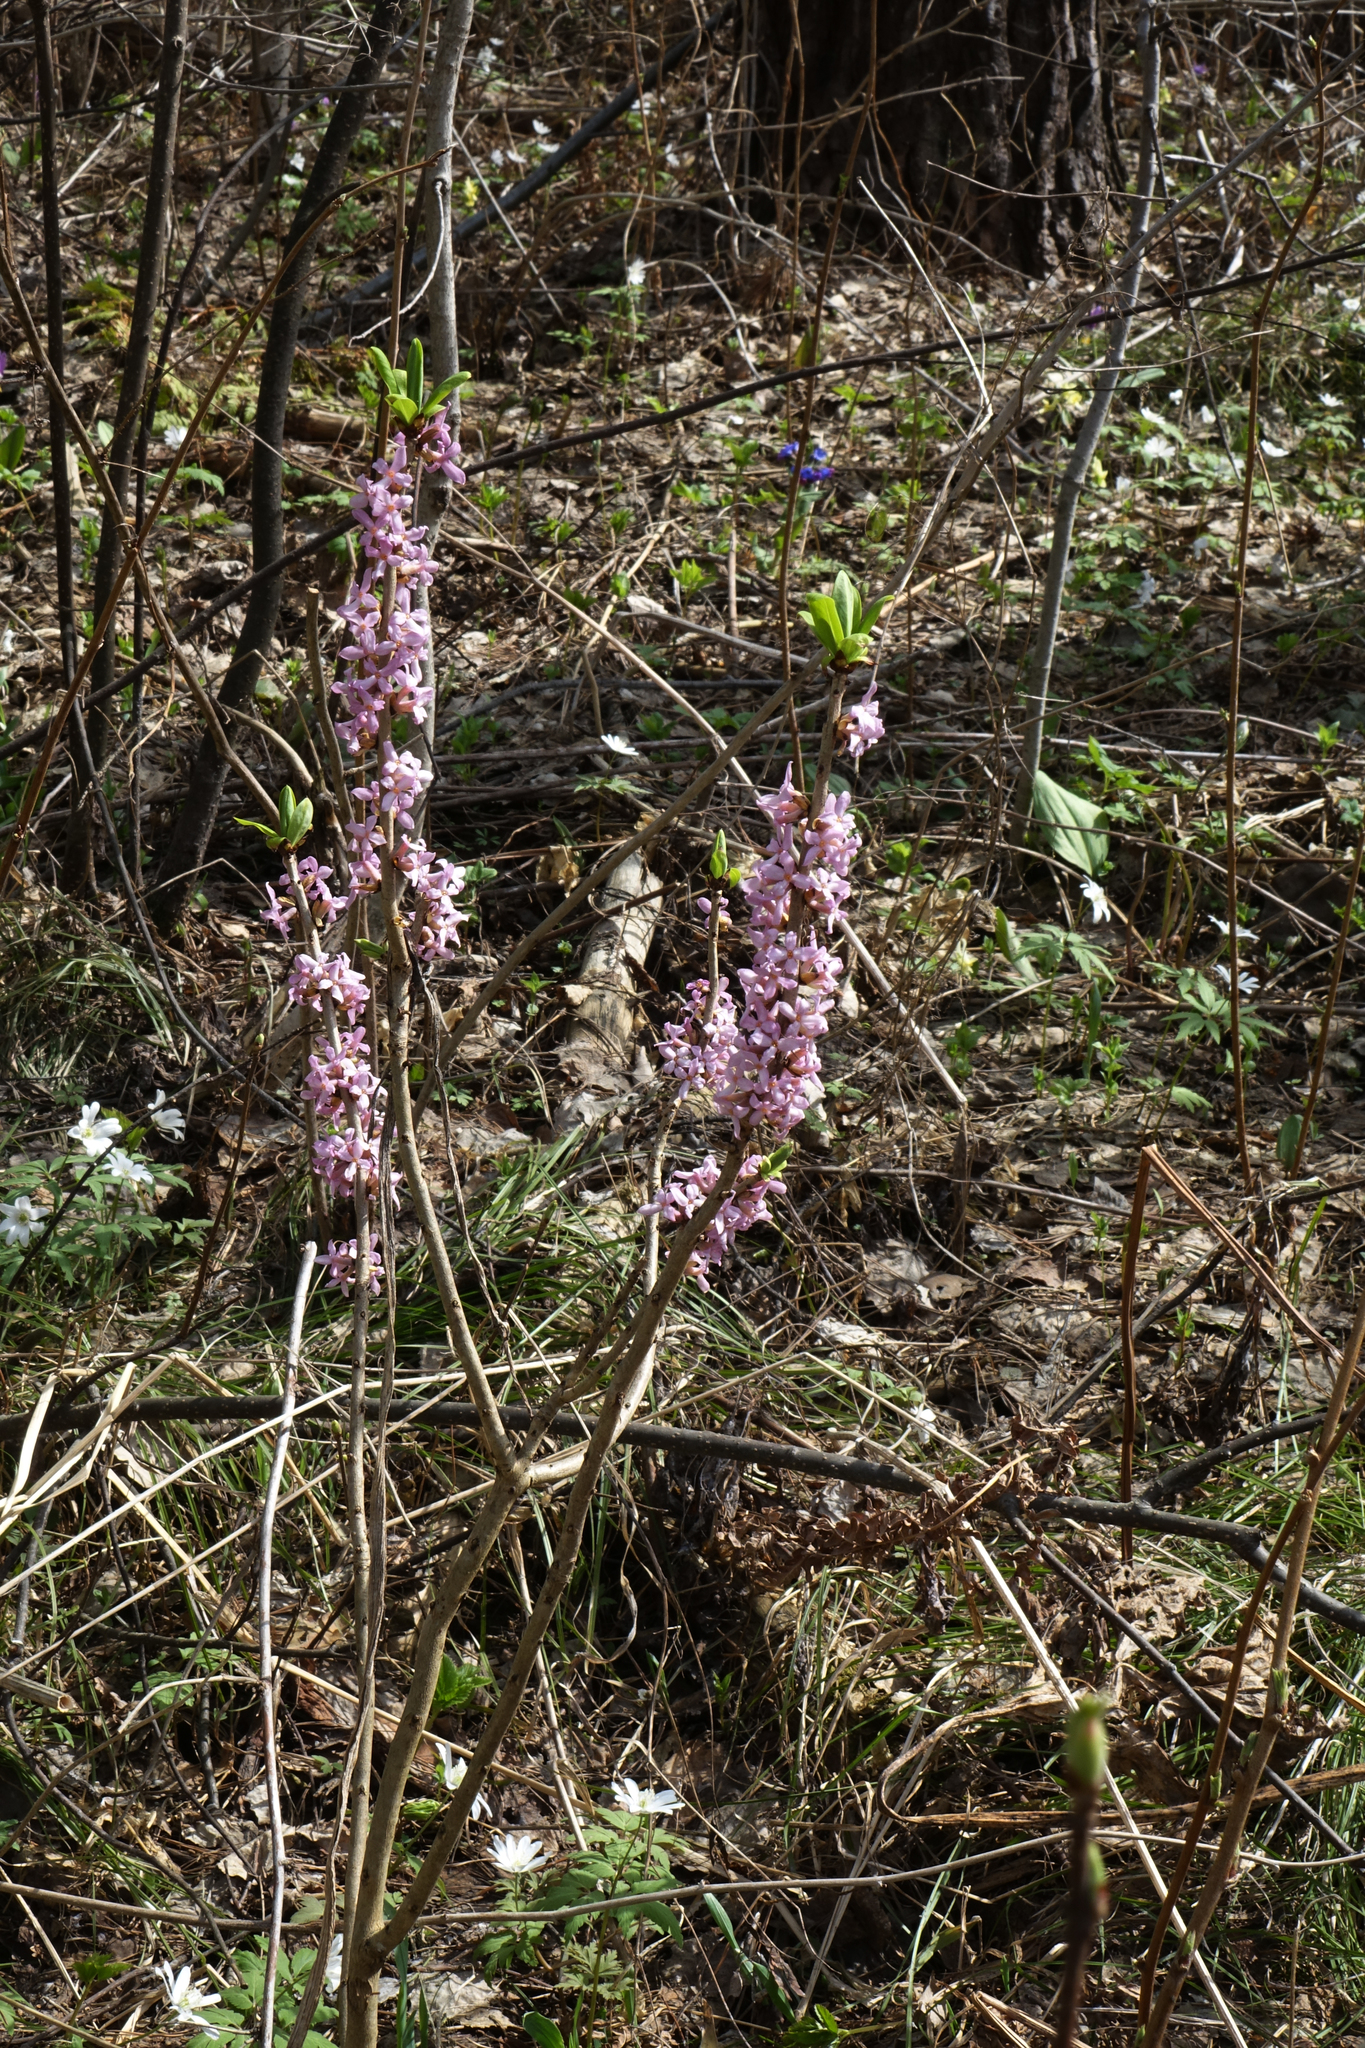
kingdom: Plantae
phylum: Tracheophyta
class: Magnoliopsida
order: Malvales
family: Thymelaeaceae
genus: Daphne
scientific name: Daphne mezereum
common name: Mezereon
